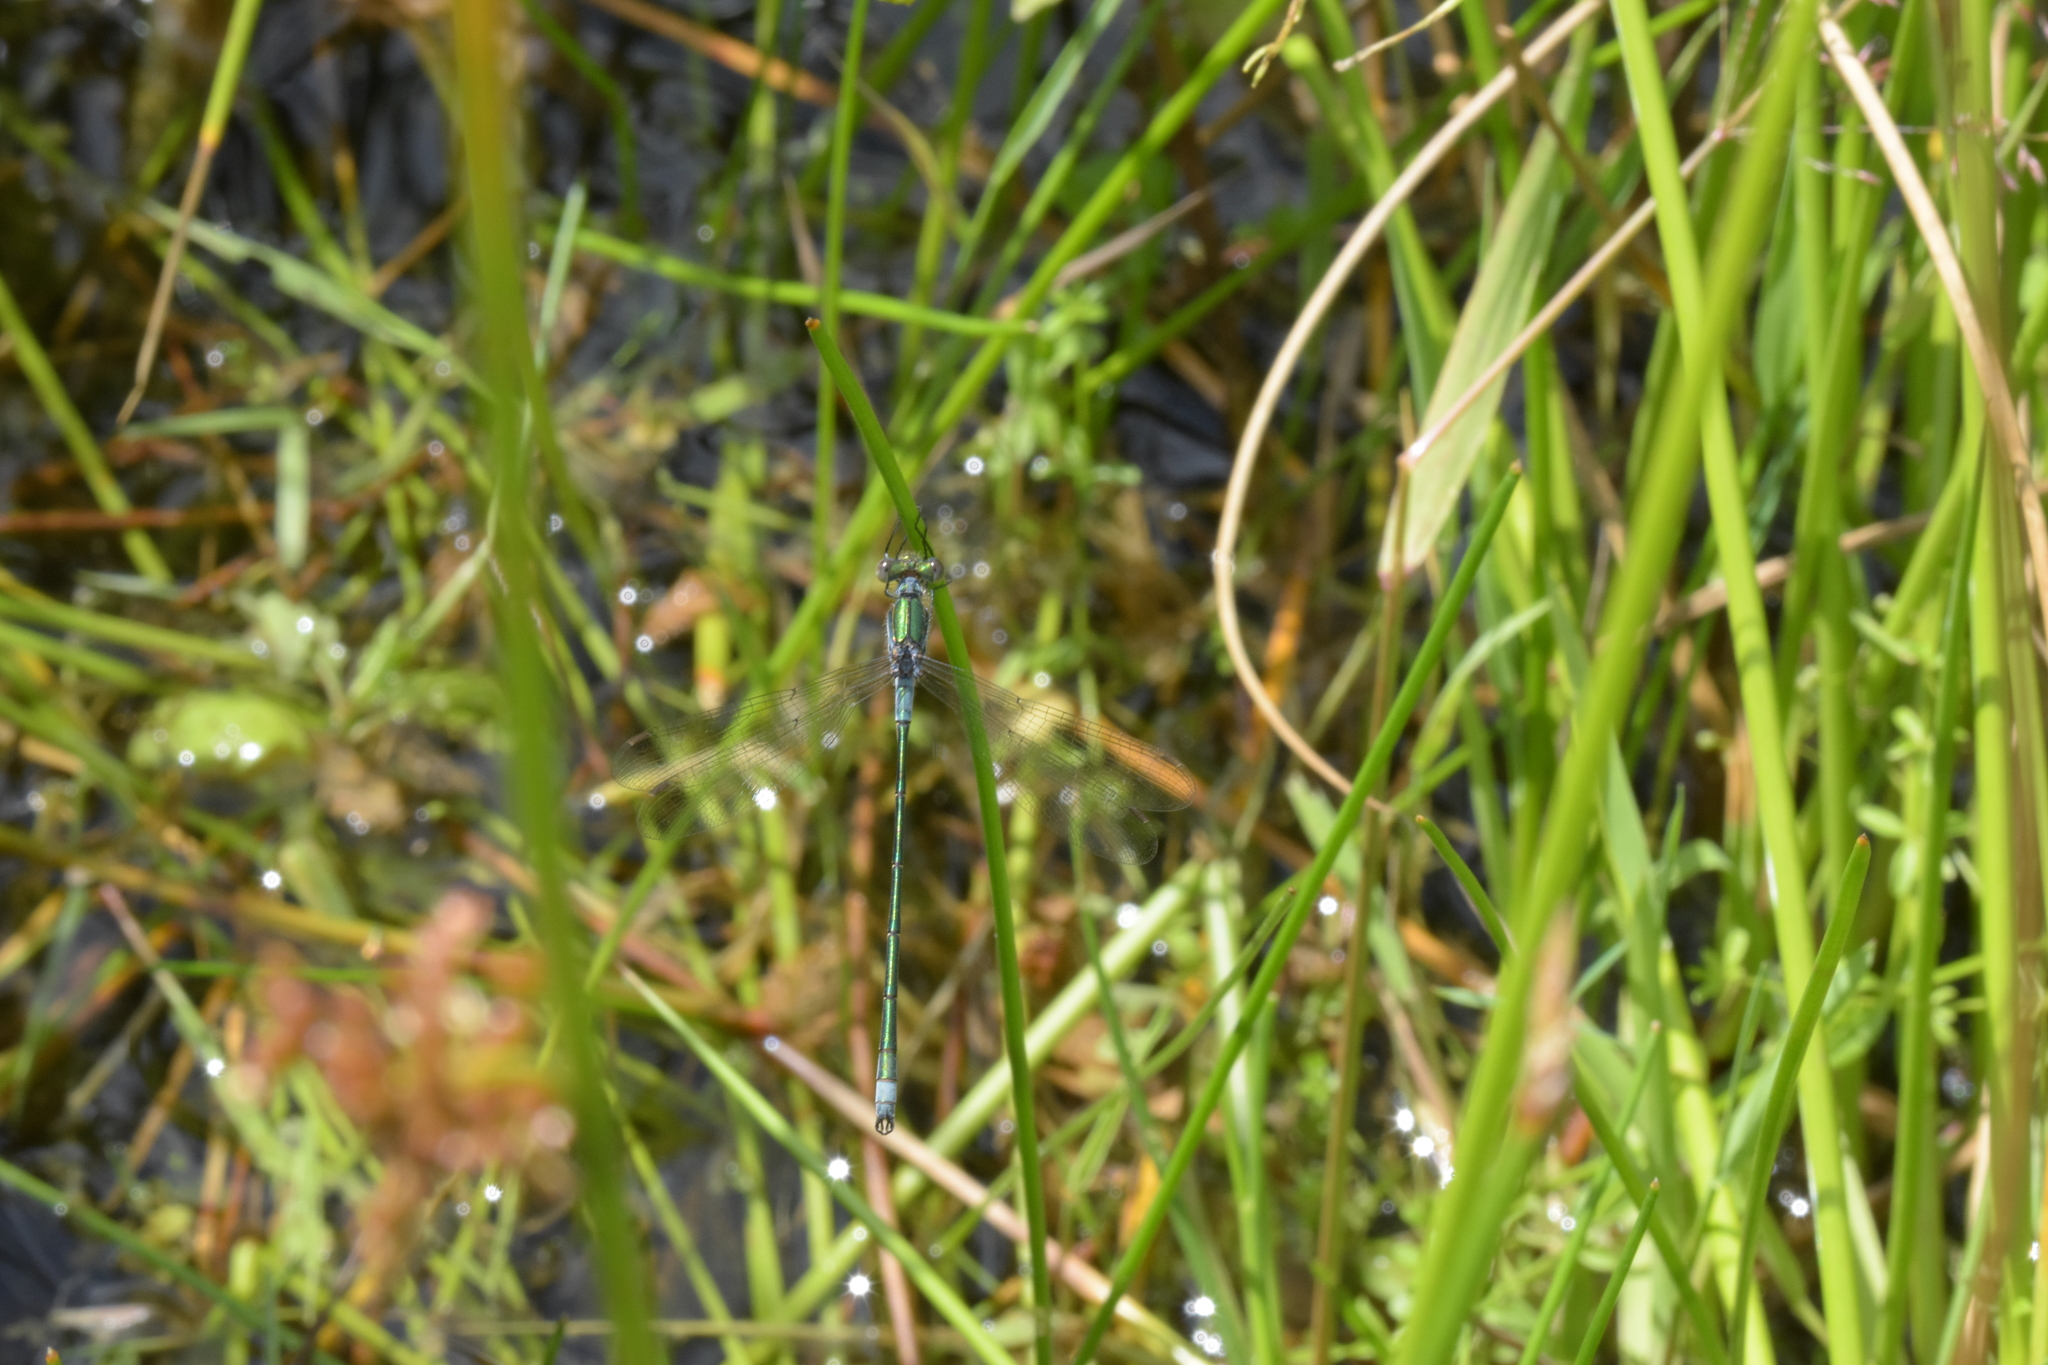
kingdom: Animalia
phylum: Arthropoda
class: Insecta
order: Odonata
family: Lestidae
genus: Lestes
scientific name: Lestes sponsa
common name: Common spreadwing
